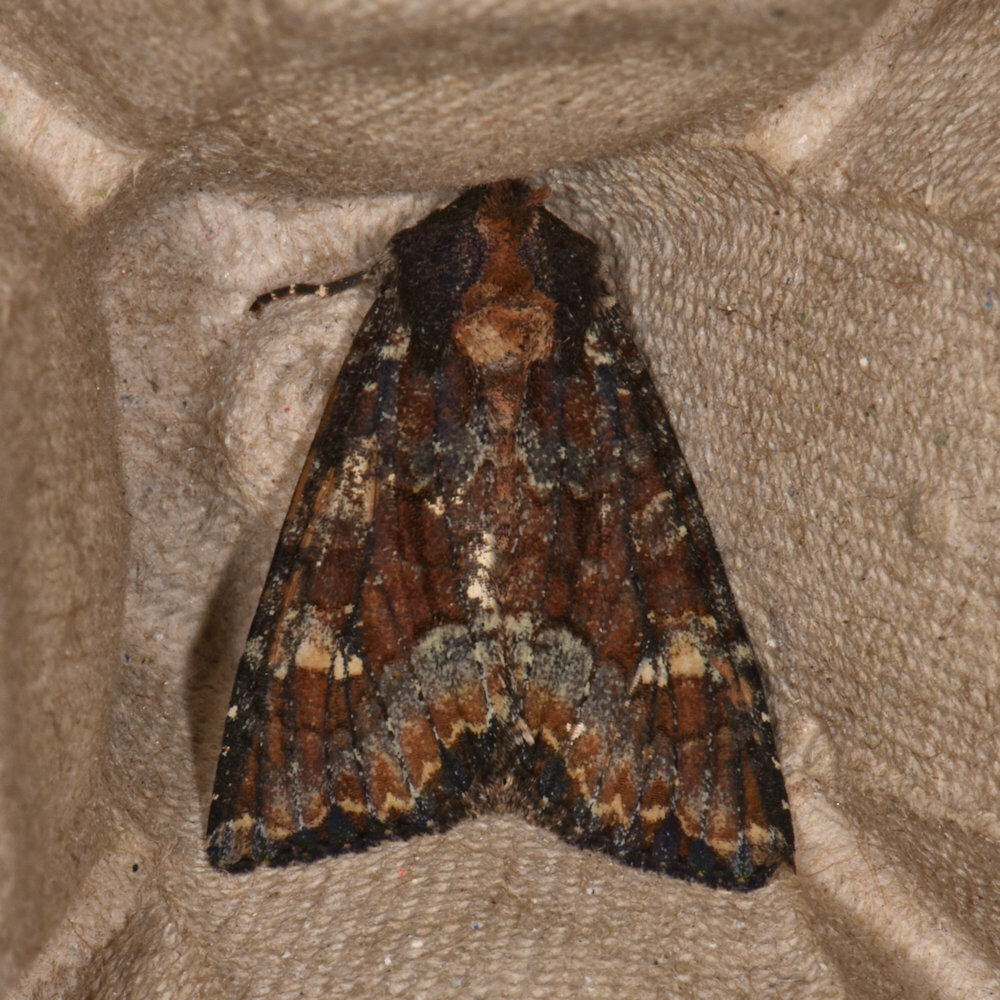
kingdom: Animalia
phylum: Arthropoda
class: Insecta
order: Lepidoptera
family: Noctuidae
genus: Apamea
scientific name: Apamea amputatrix
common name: Yellow-headed cutworm moth
